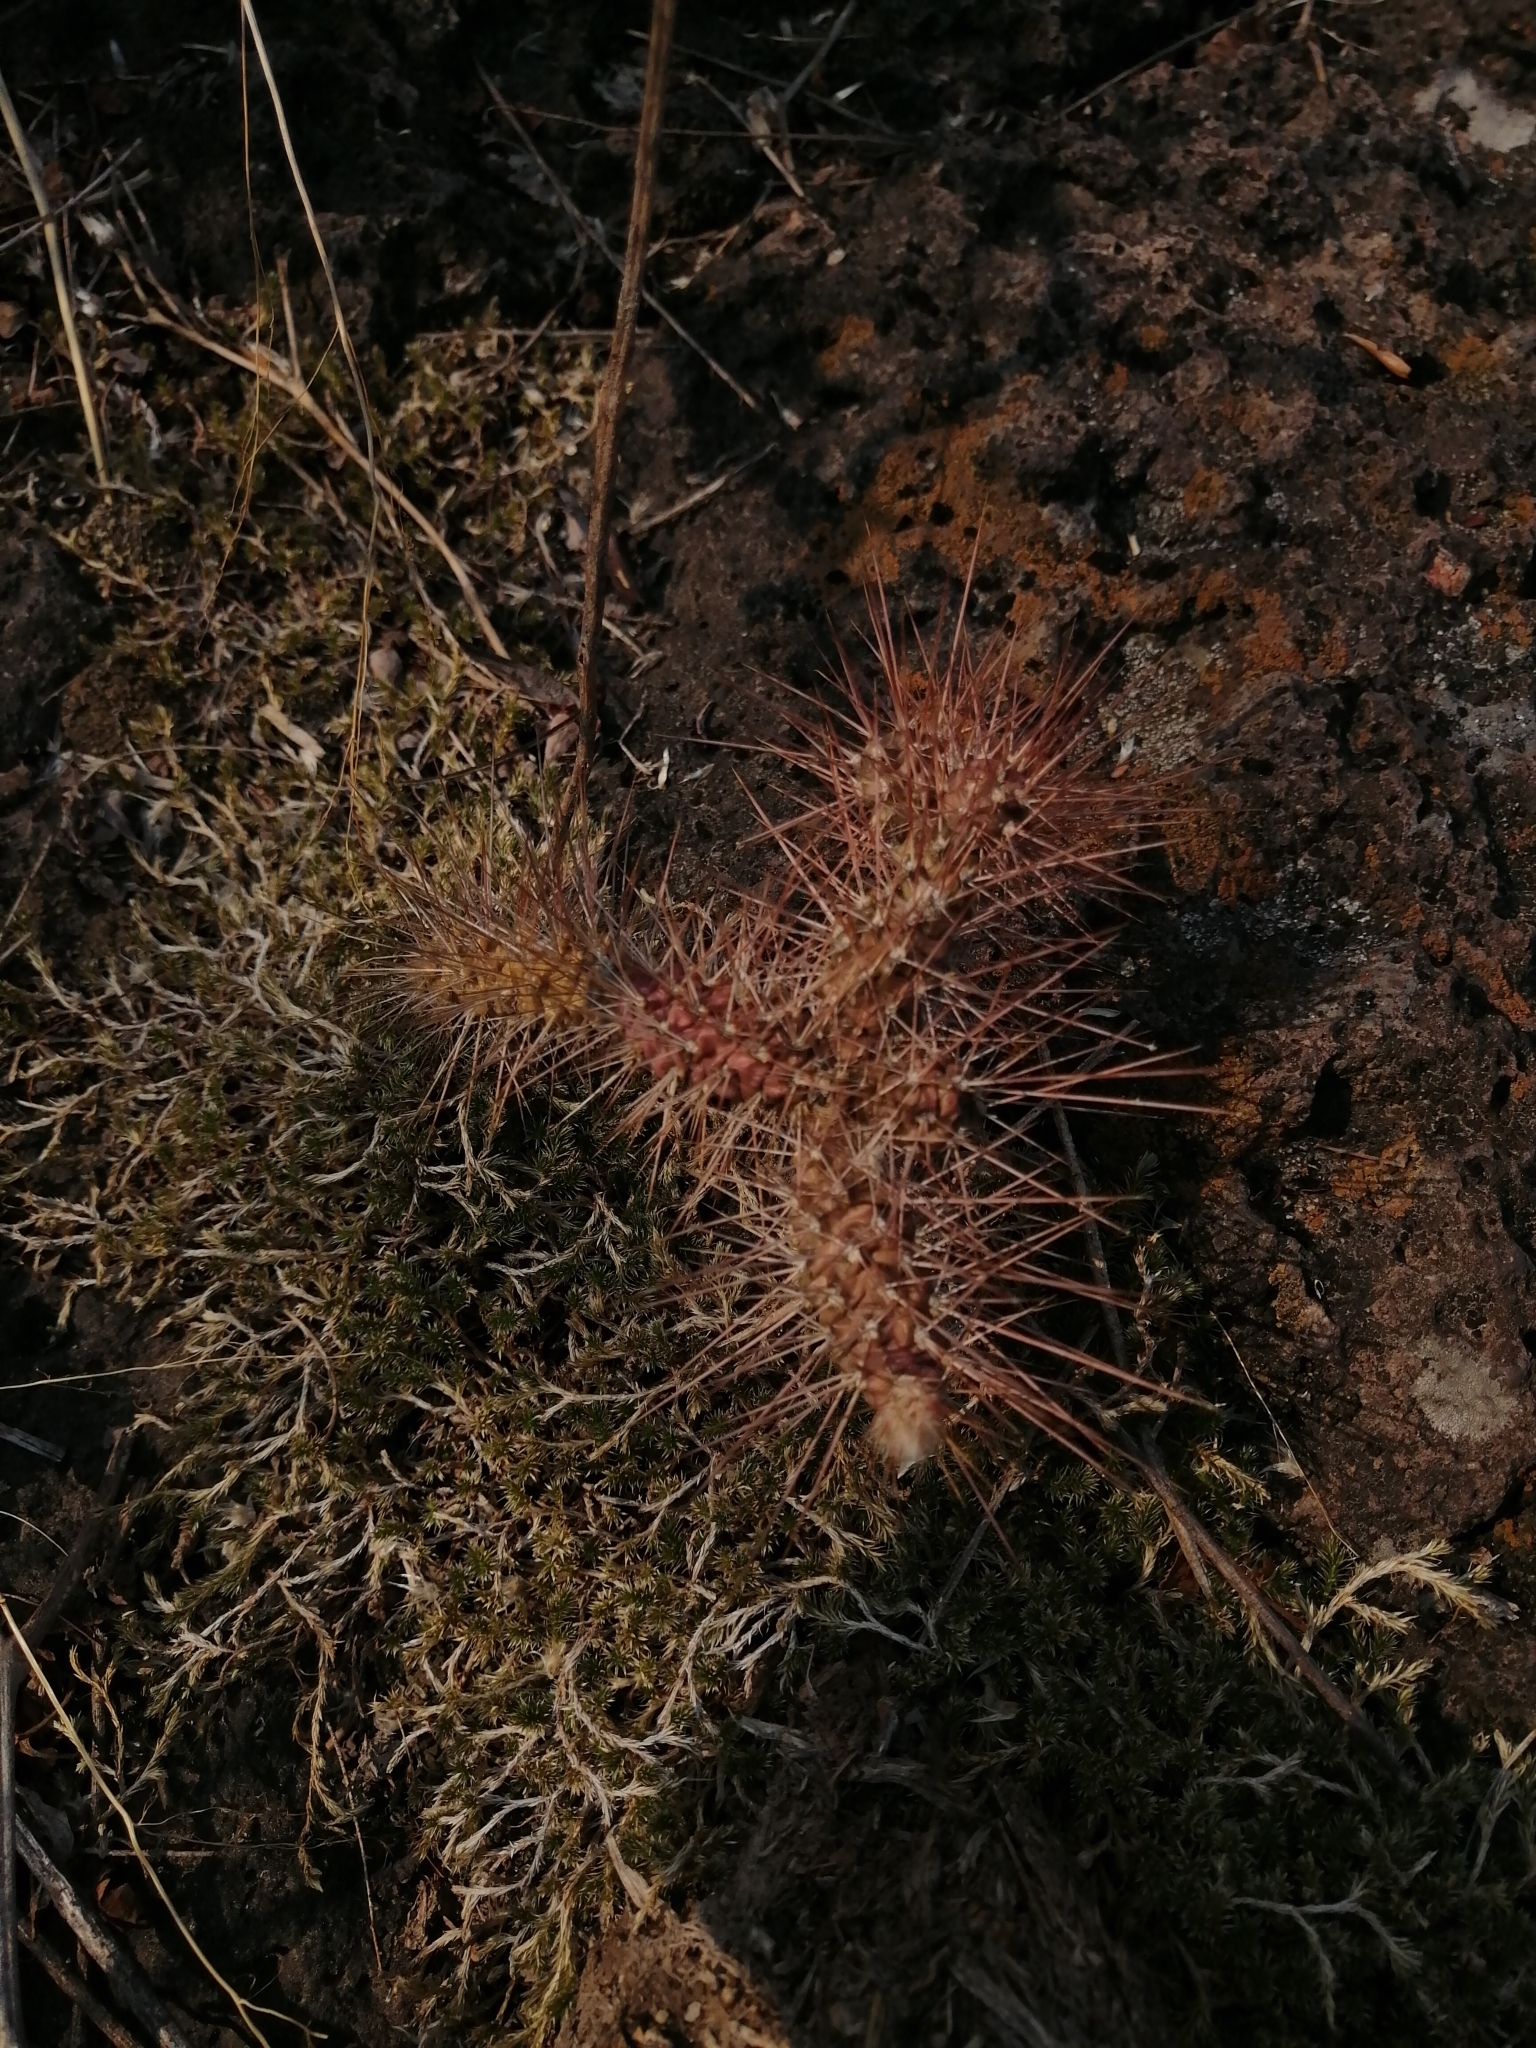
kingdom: Plantae
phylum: Tracheophyta
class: Magnoliopsida
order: Caryophyllales
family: Cactaceae
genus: Opuntia
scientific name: Opuntia pubescens
